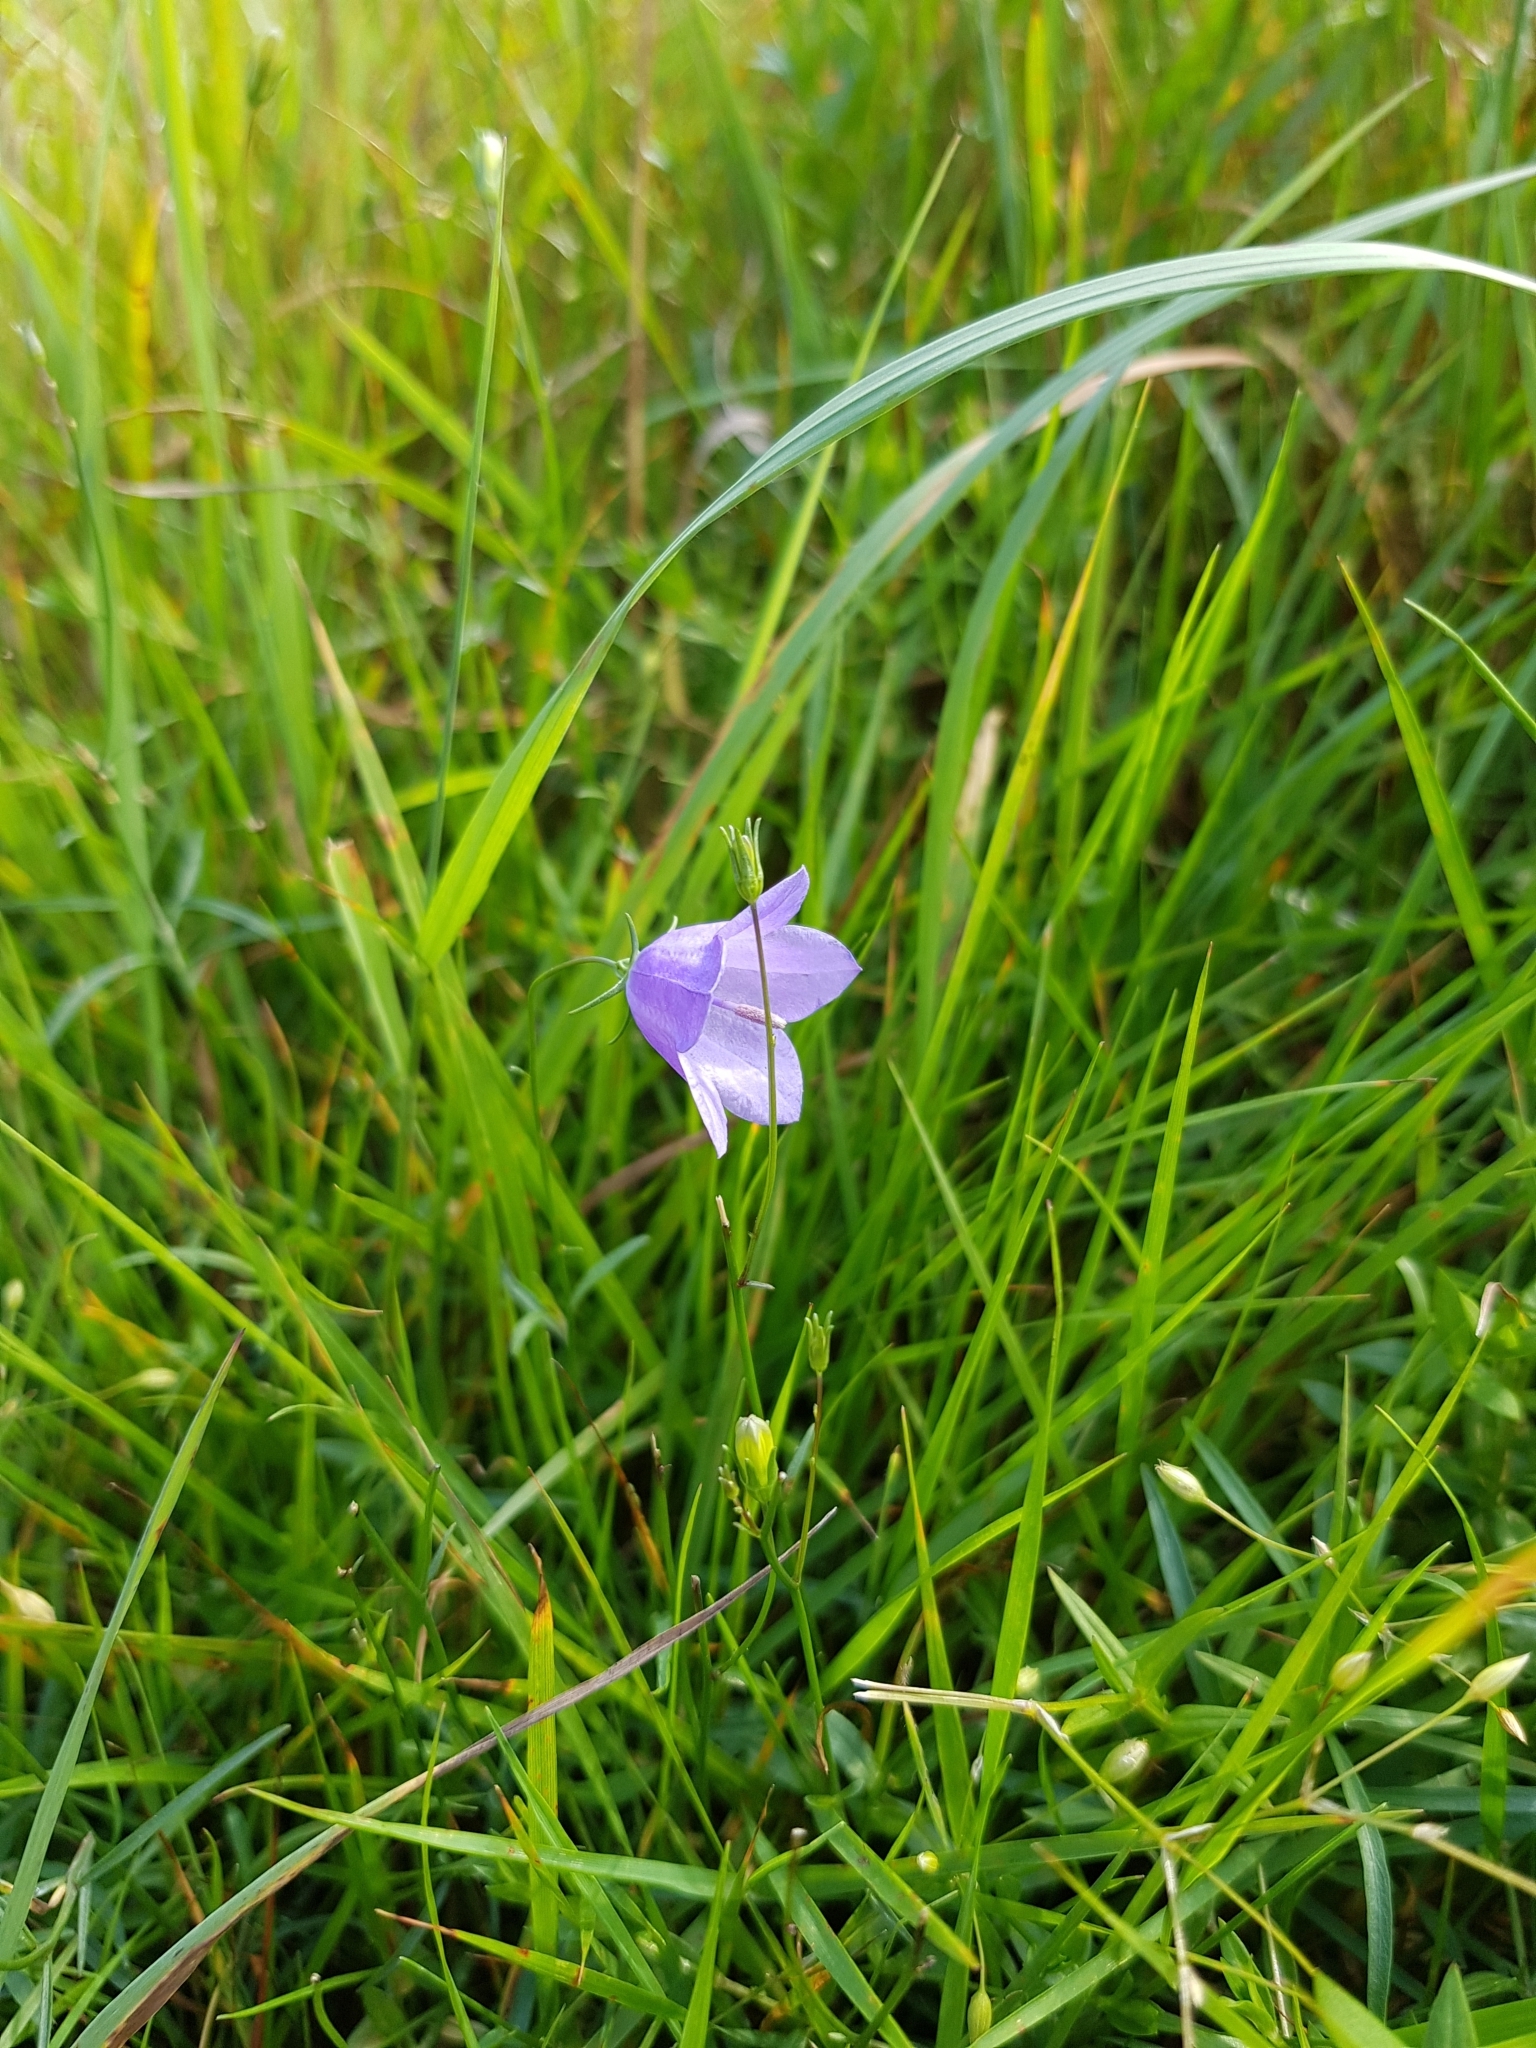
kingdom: Plantae
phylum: Tracheophyta
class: Magnoliopsida
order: Asterales
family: Campanulaceae
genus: Campanula
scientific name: Campanula rotundifolia
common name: Harebell
